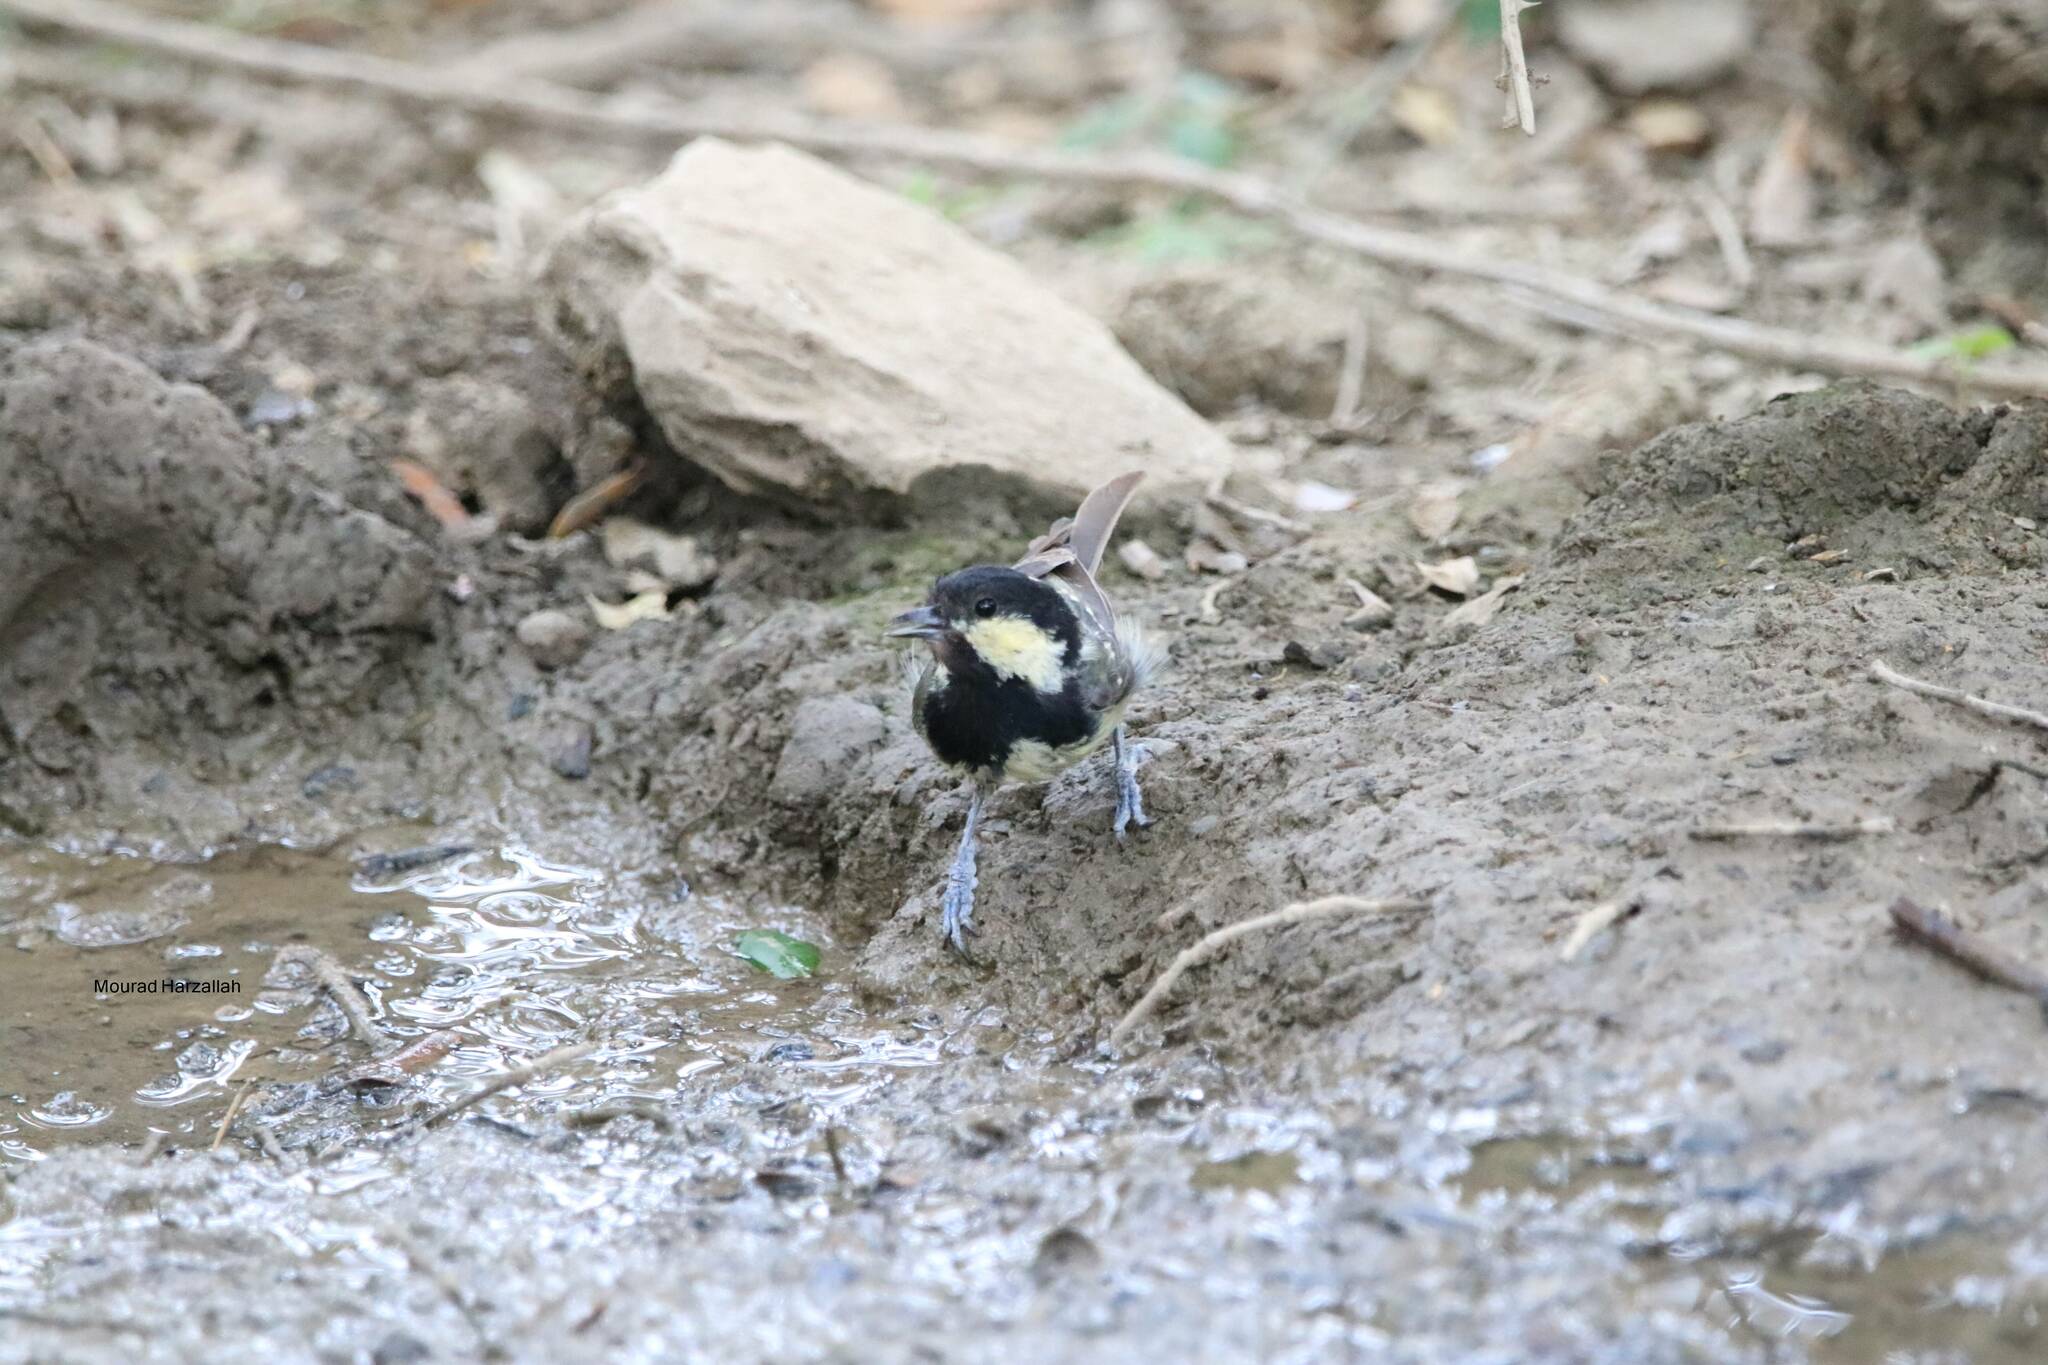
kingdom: Animalia
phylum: Chordata
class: Aves
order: Passeriformes
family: Paridae
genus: Periparus
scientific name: Periparus ater
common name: Coal tit
